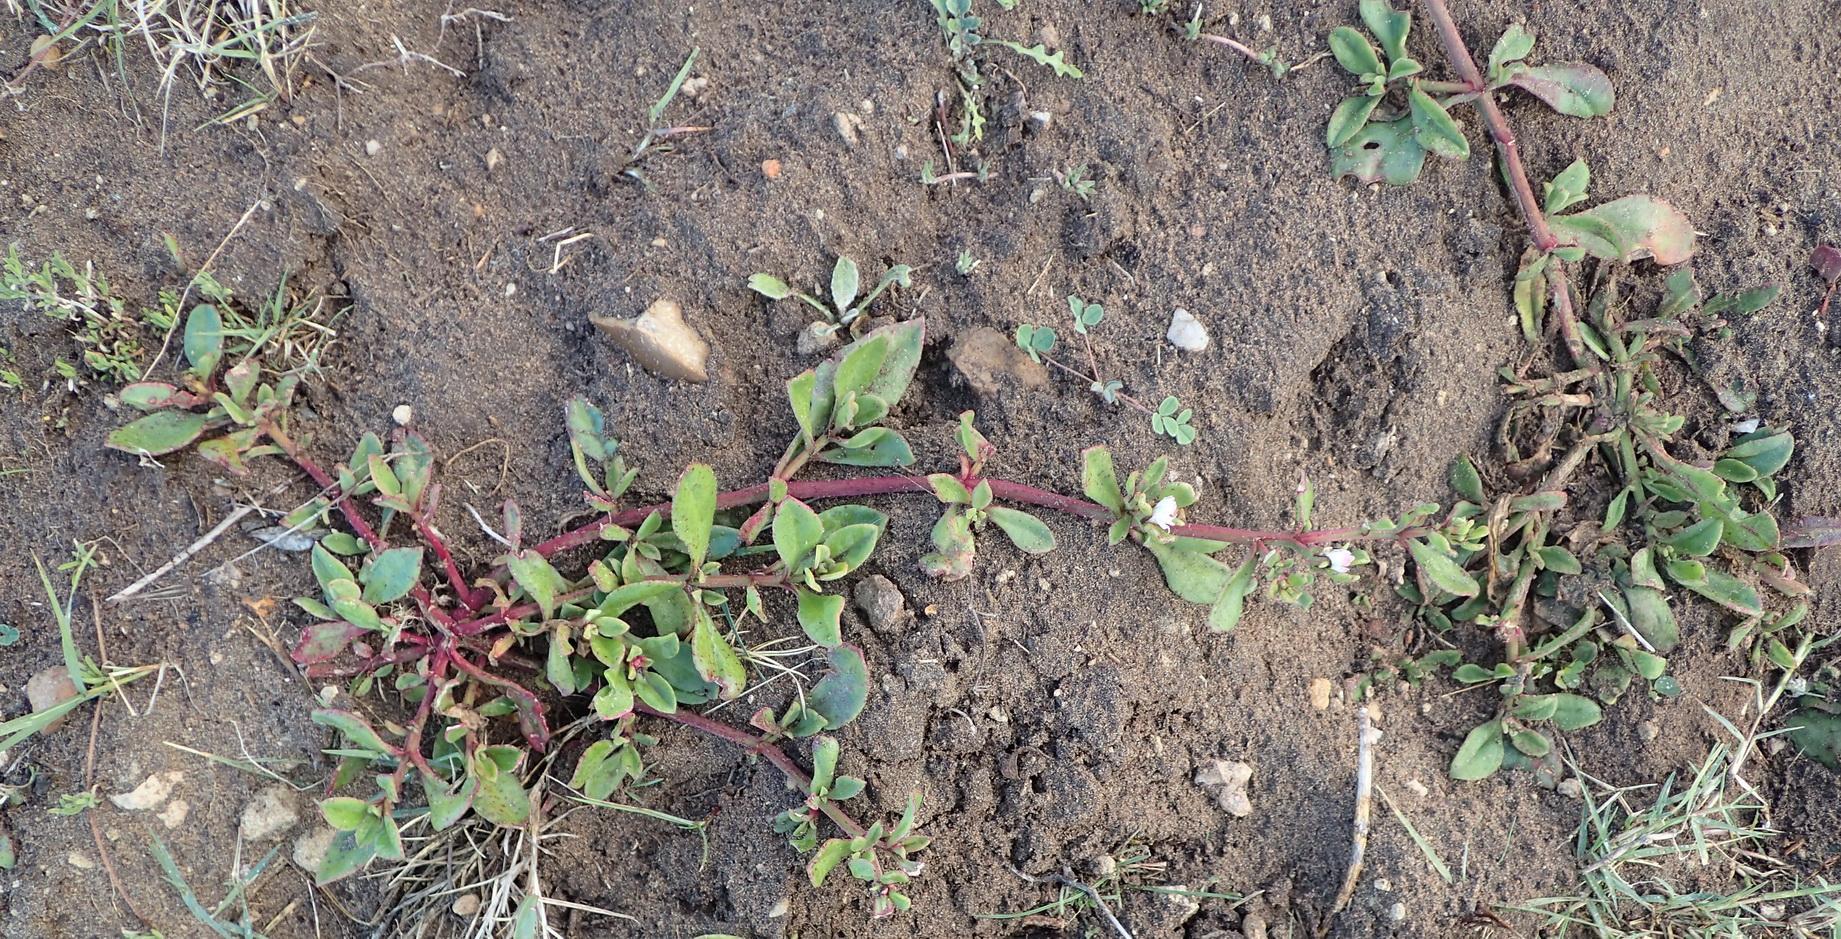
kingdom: Plantae
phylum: Tracheophyta
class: Magnoliopsida
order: Caryophyllales
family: Aizoaceae
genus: Mesembryanthemum
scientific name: Mesembryanthemum aitonis
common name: Angled iceplant
